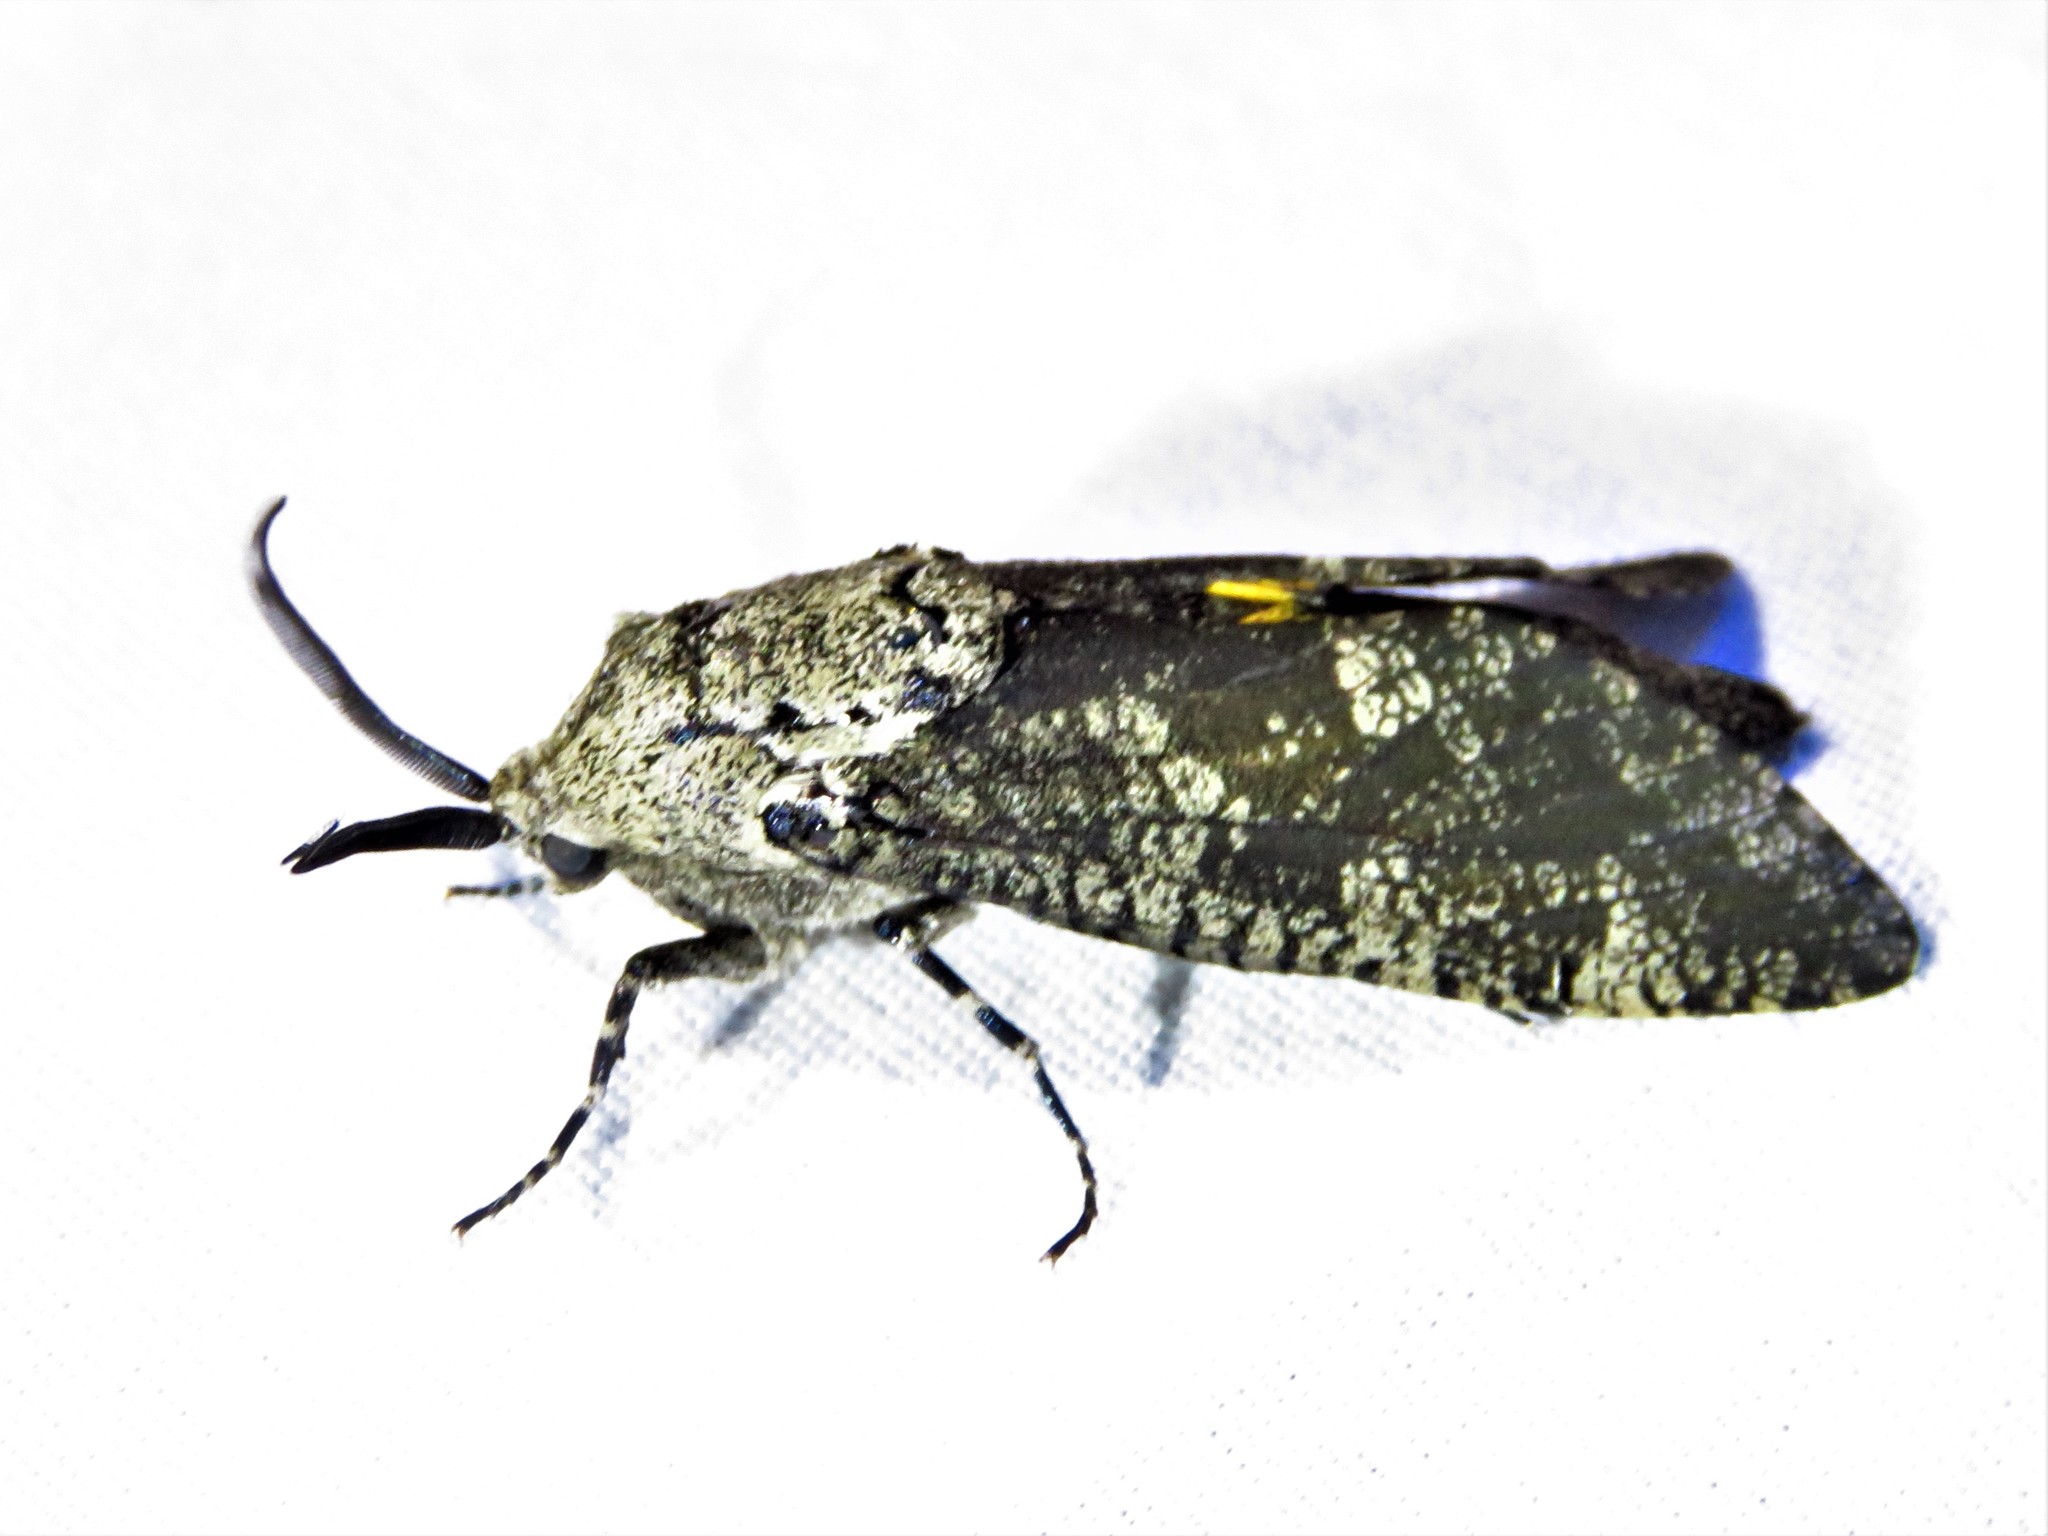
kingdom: Animalia
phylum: Arthropoda
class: Insecta
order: Lepidoptera
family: Cossidae
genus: Prionoxystus
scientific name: Prionoxystus robiniae
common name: Carpenterworm
